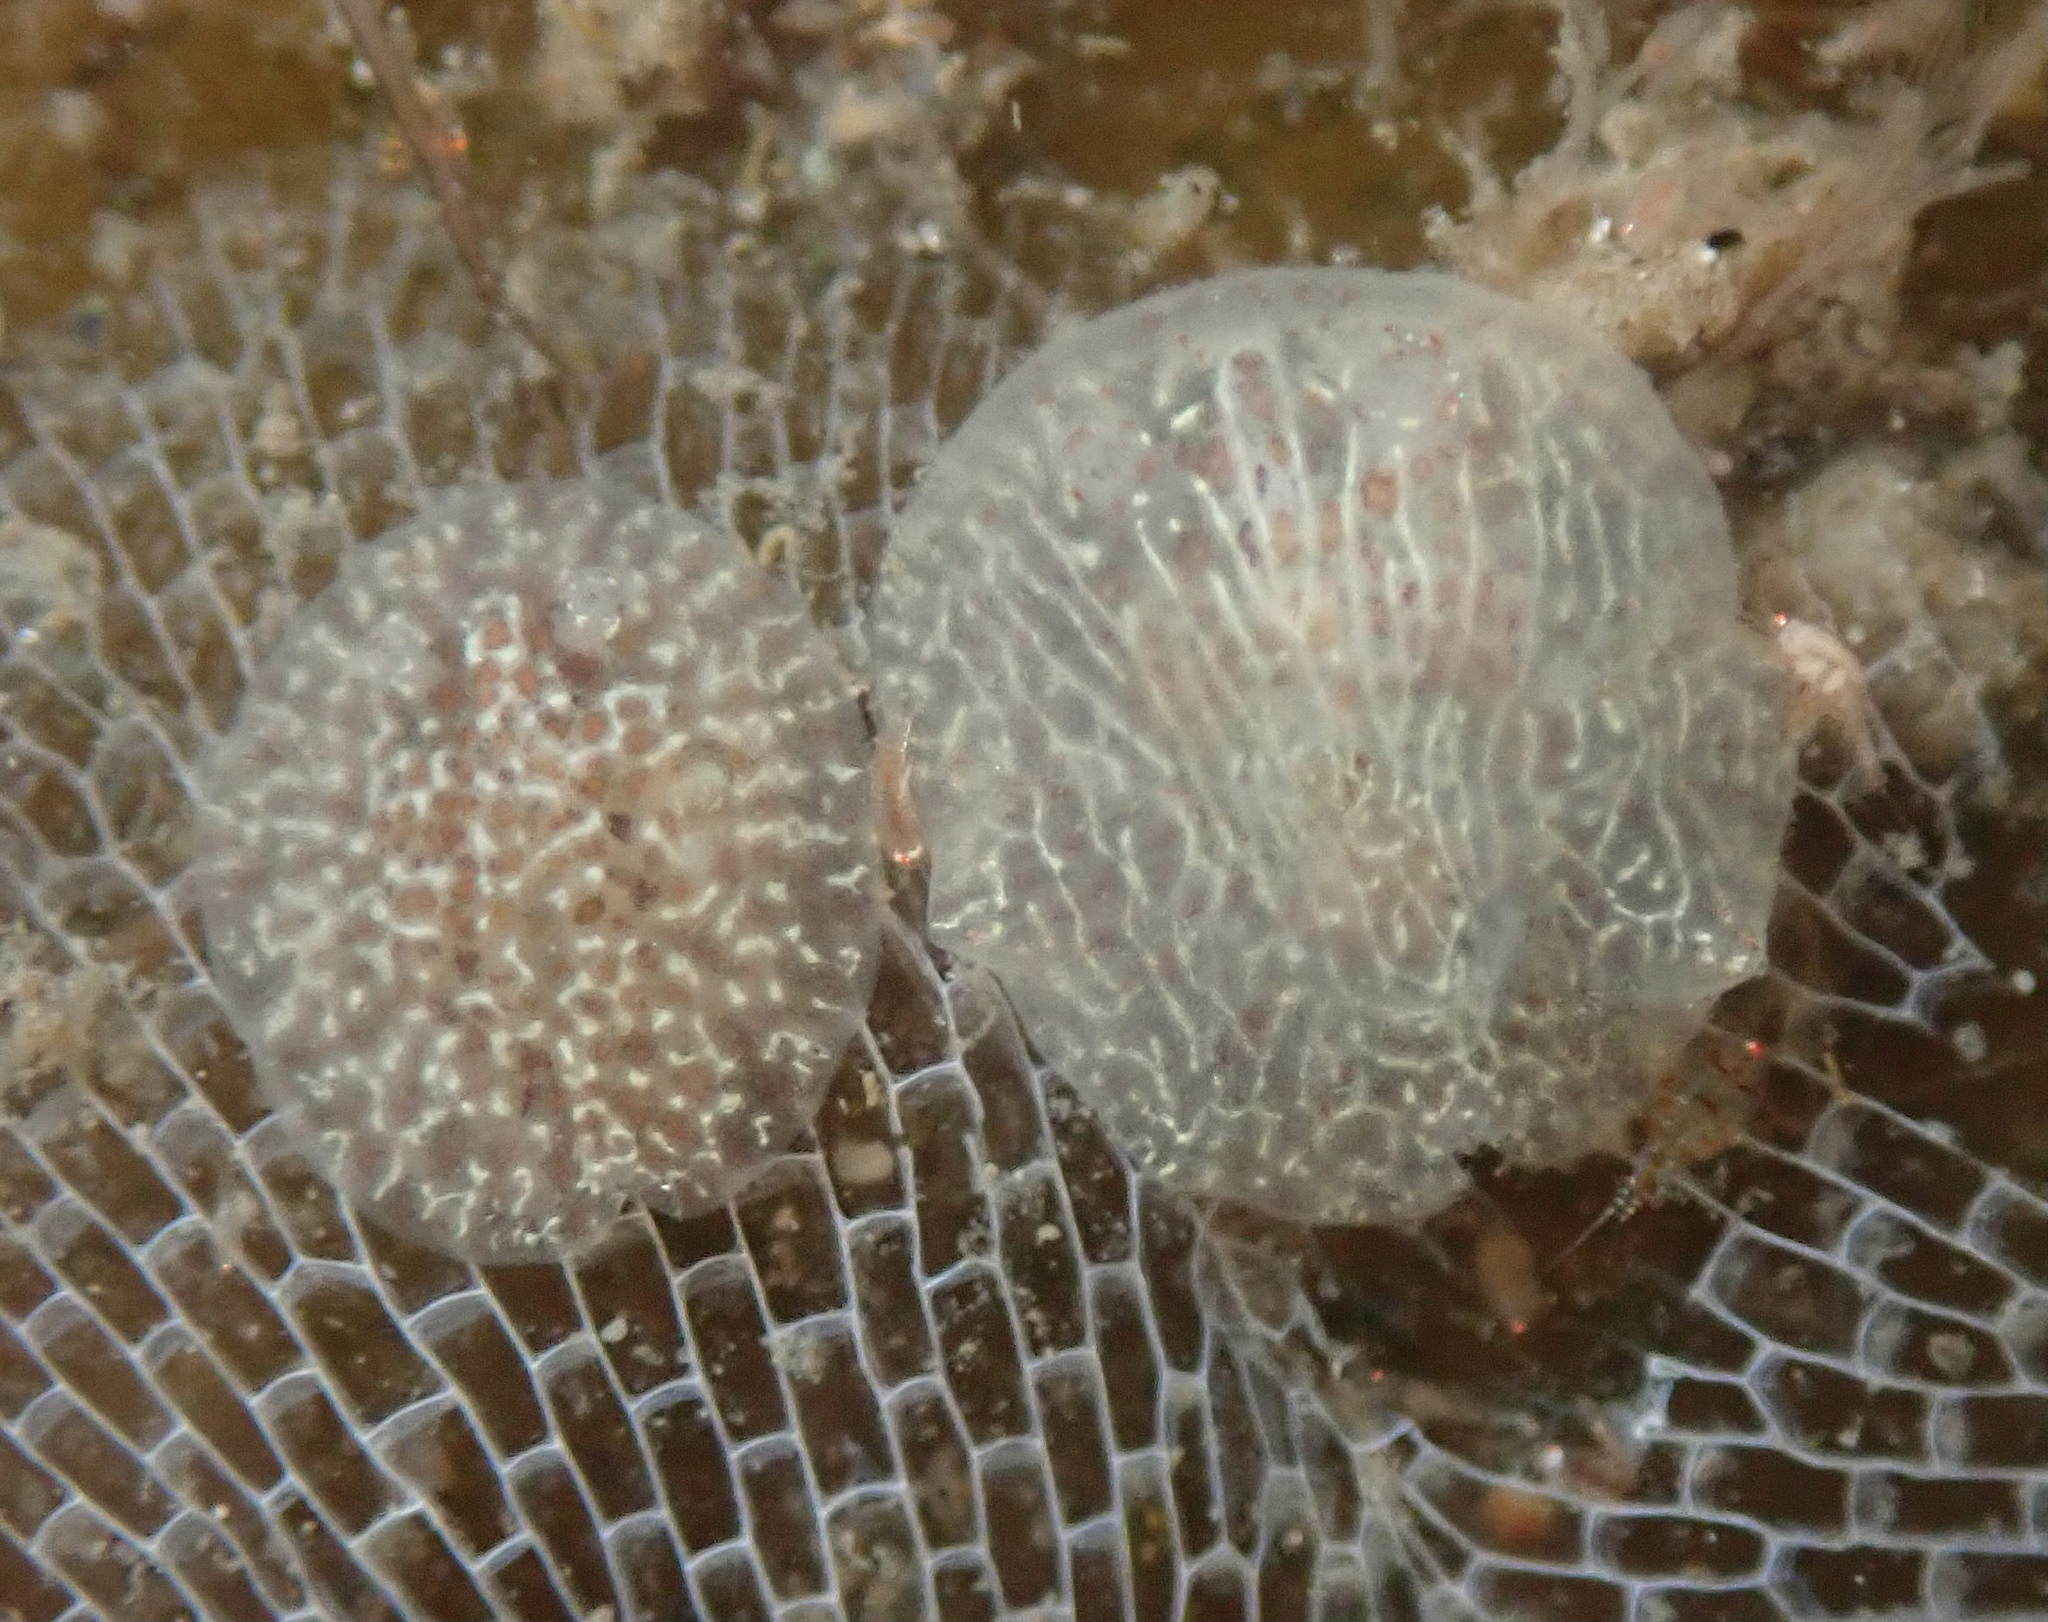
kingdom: Animalia
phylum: Mollusca
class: Gastropoda
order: Nudibranchia
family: Corambidae
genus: Corambe
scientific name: Corambe pacifica
